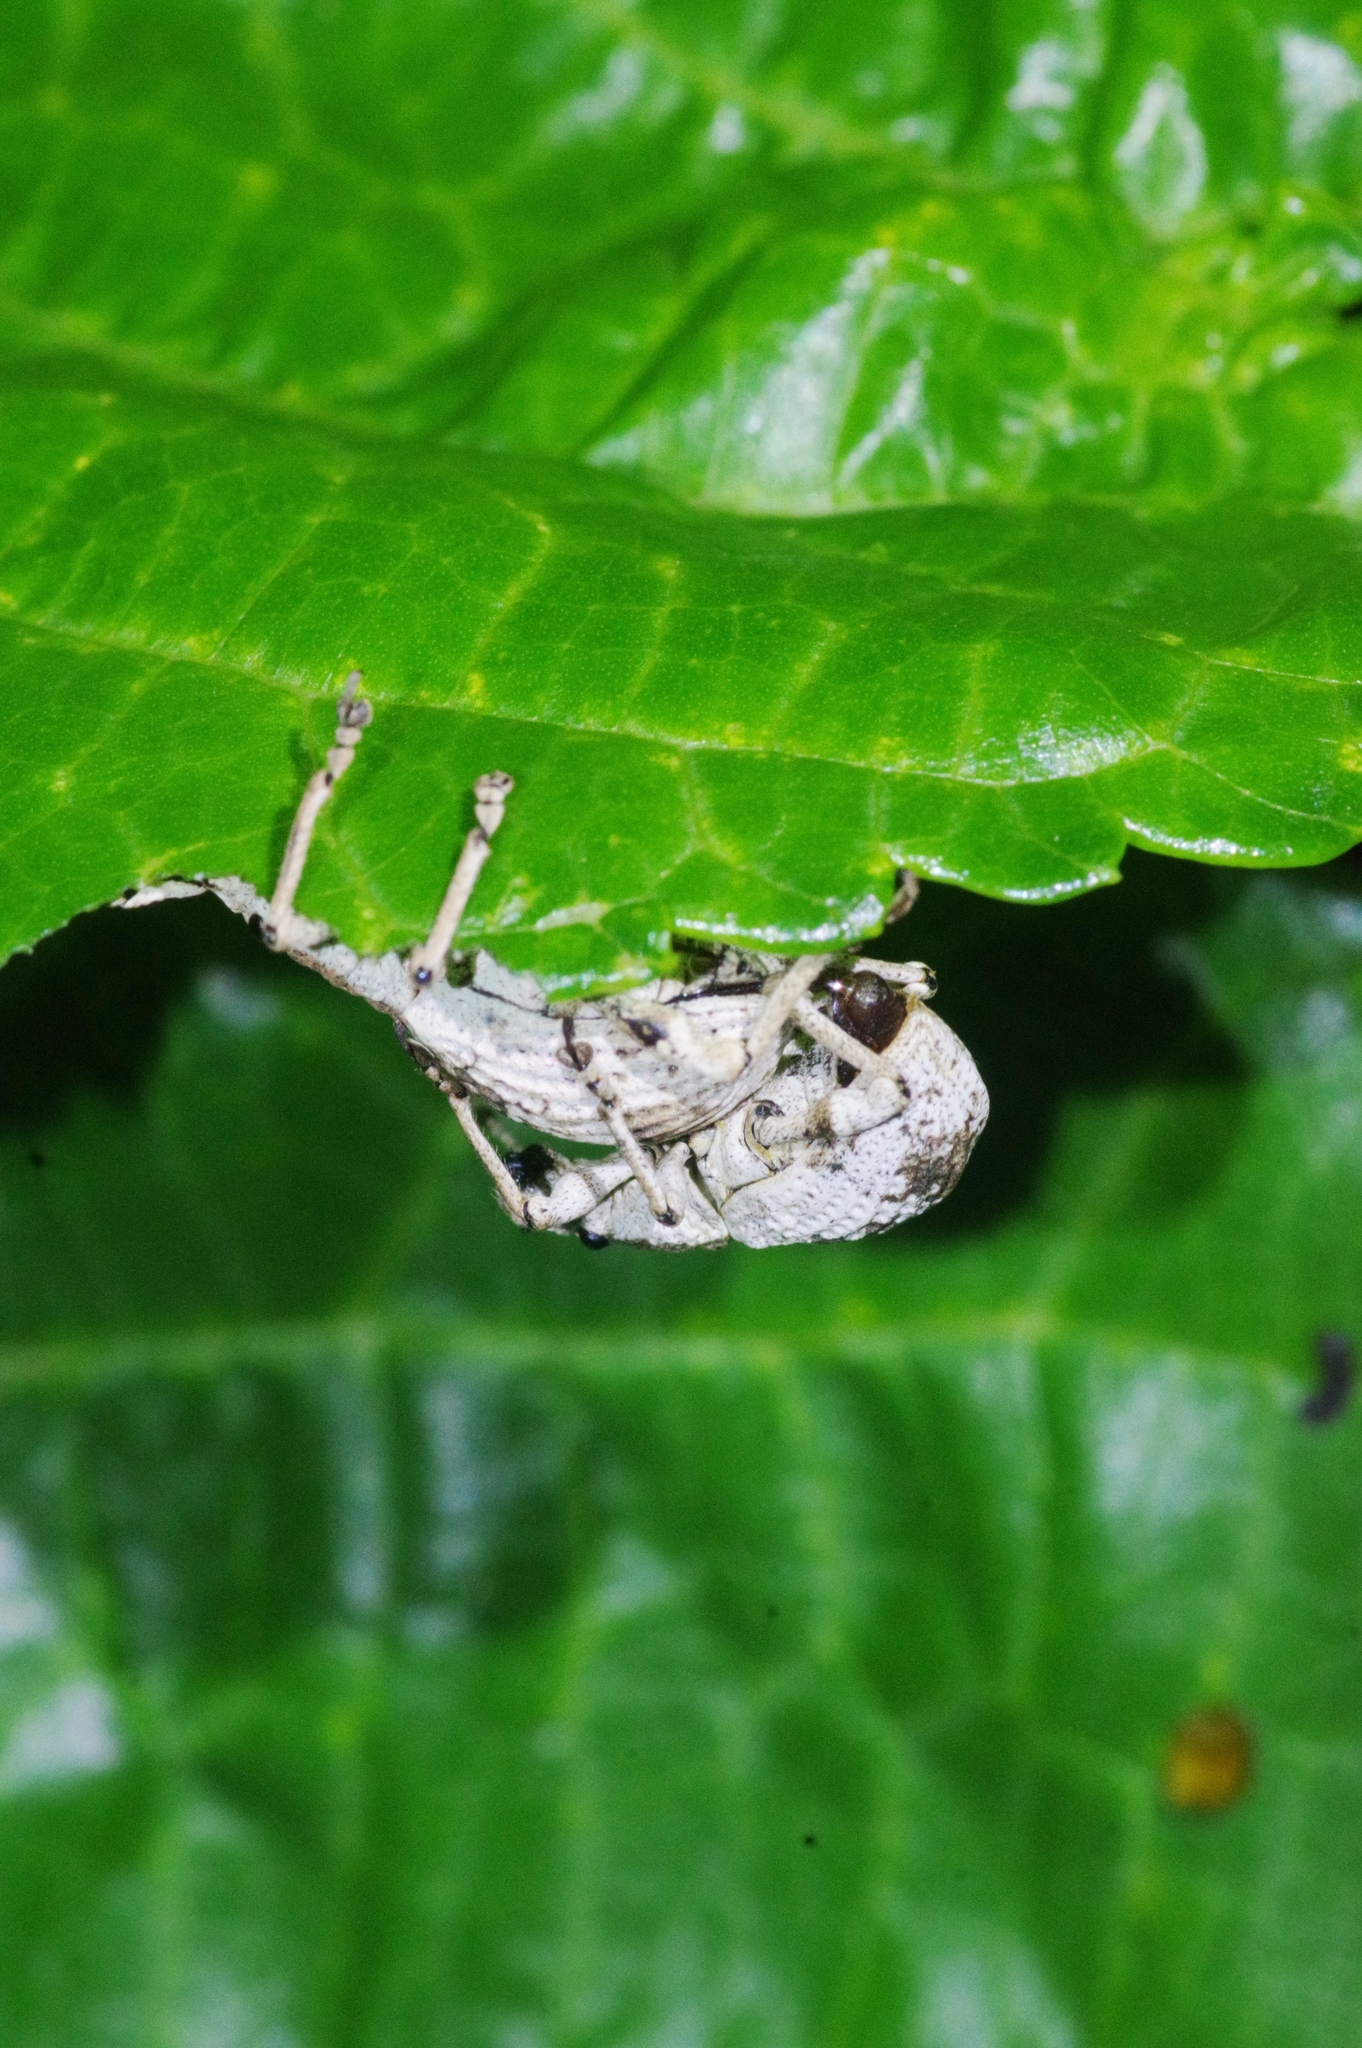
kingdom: Animalia
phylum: Arthropoda
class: Insecta
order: Coleoptera
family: Curculionidae
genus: Episomus
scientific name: Episomus mori
